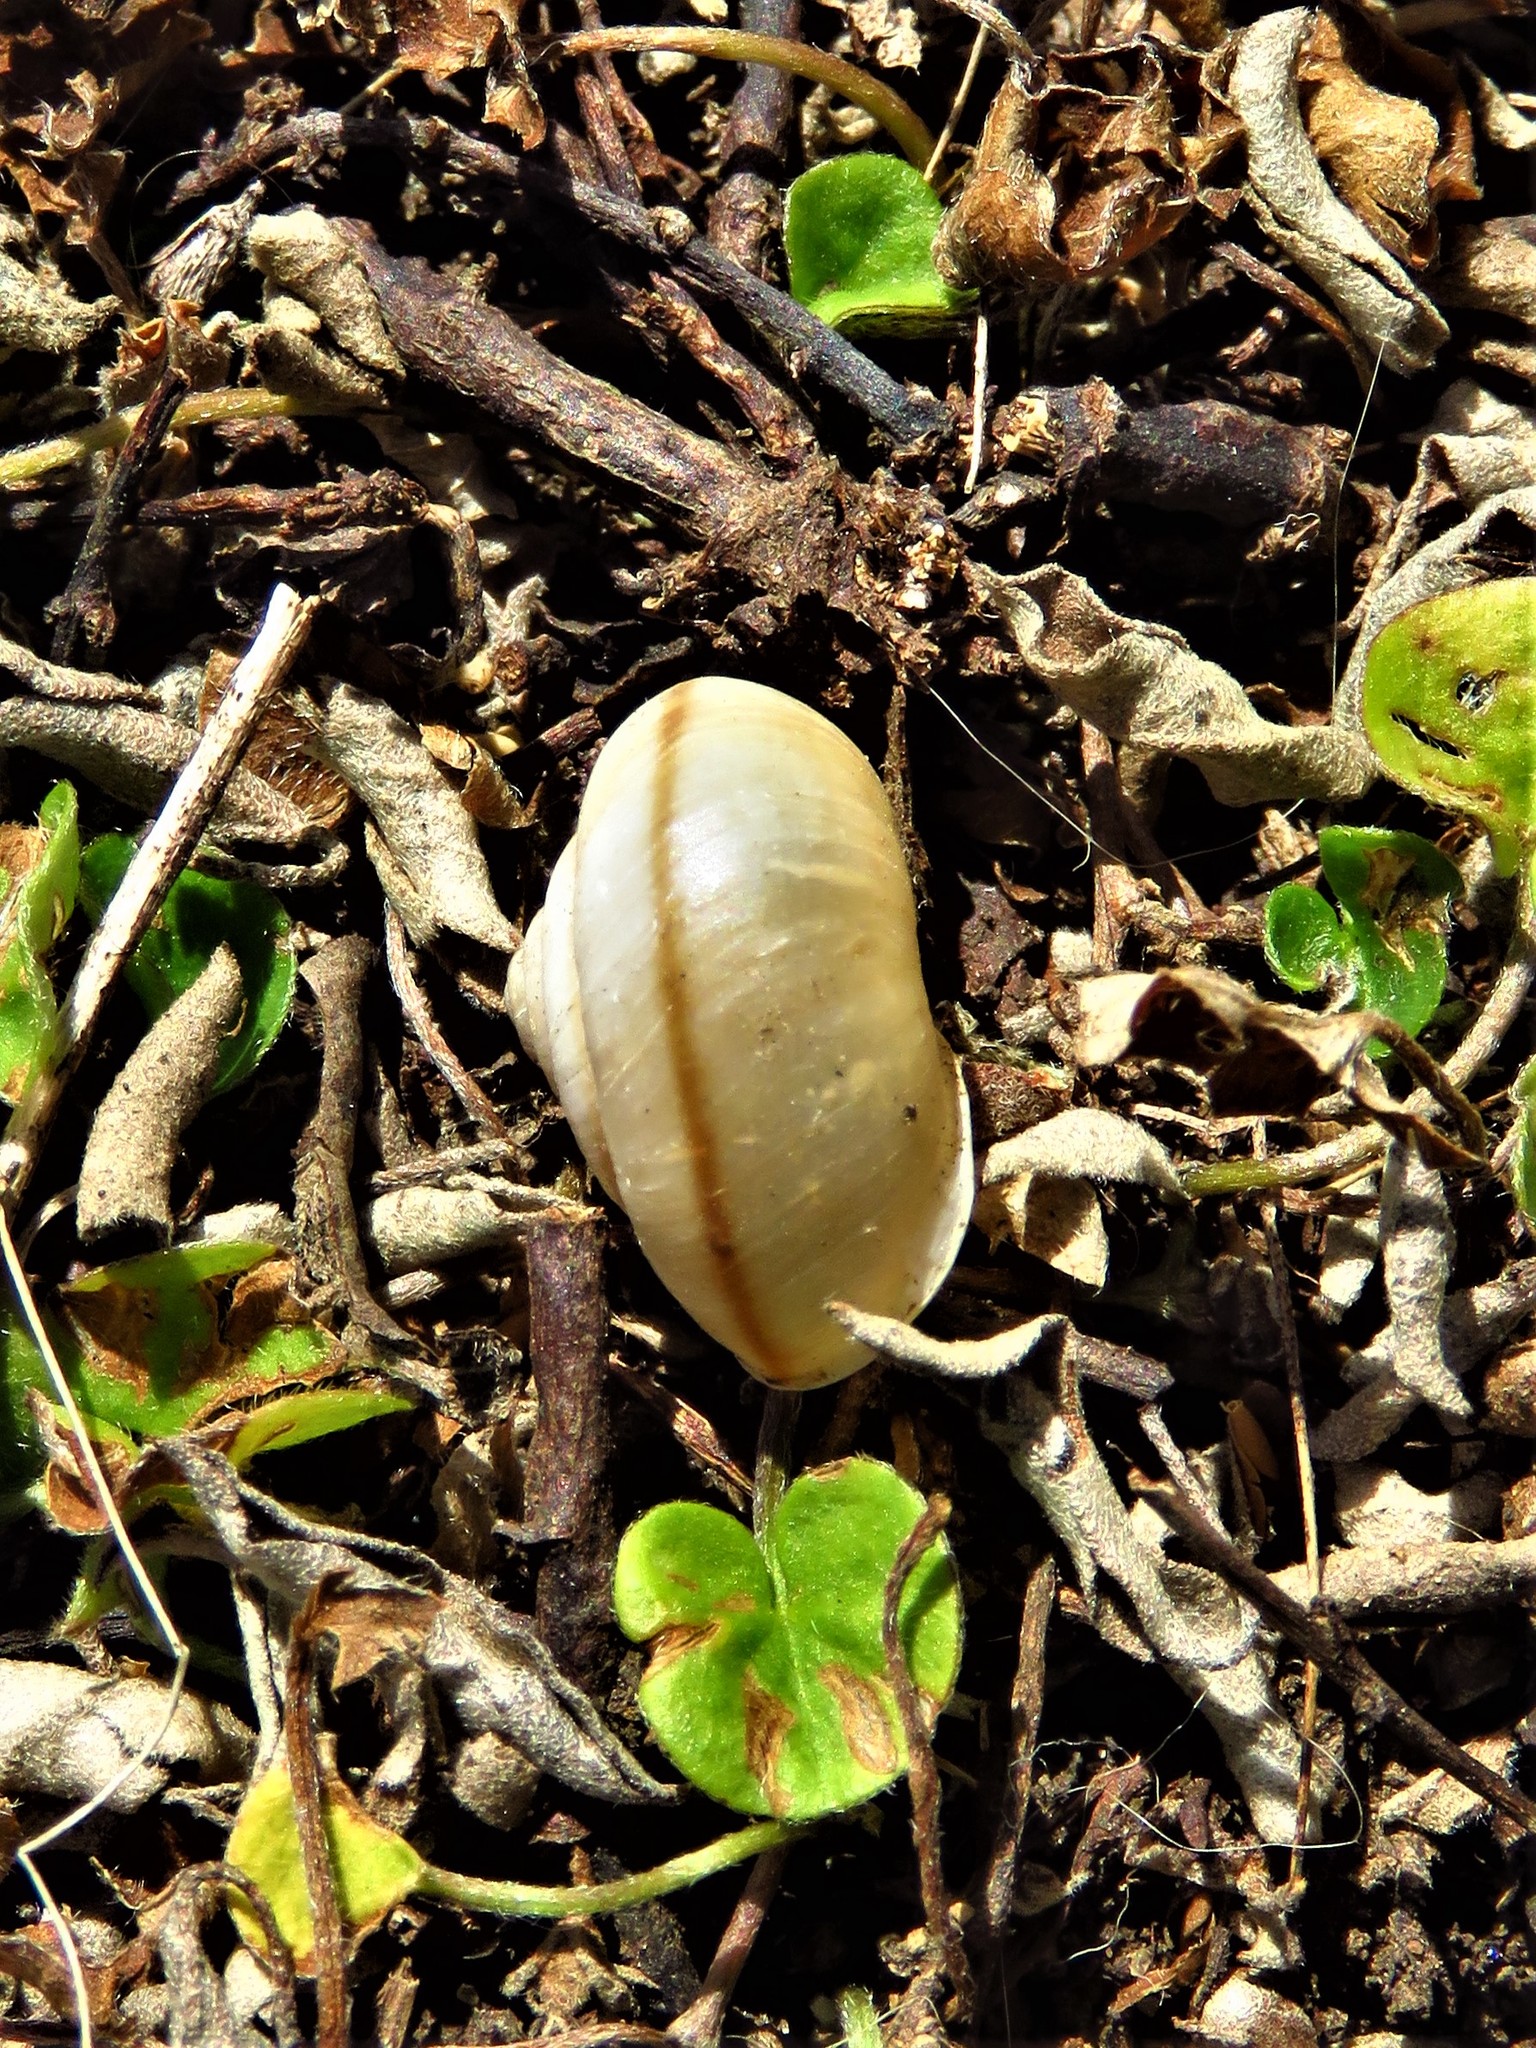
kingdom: Animalia
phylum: Mollusca
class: Gastropoda
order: Stylommatophora
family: Camaenidae
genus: Bradybaena
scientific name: Bradybaena similaris
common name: Asian trampsnail
